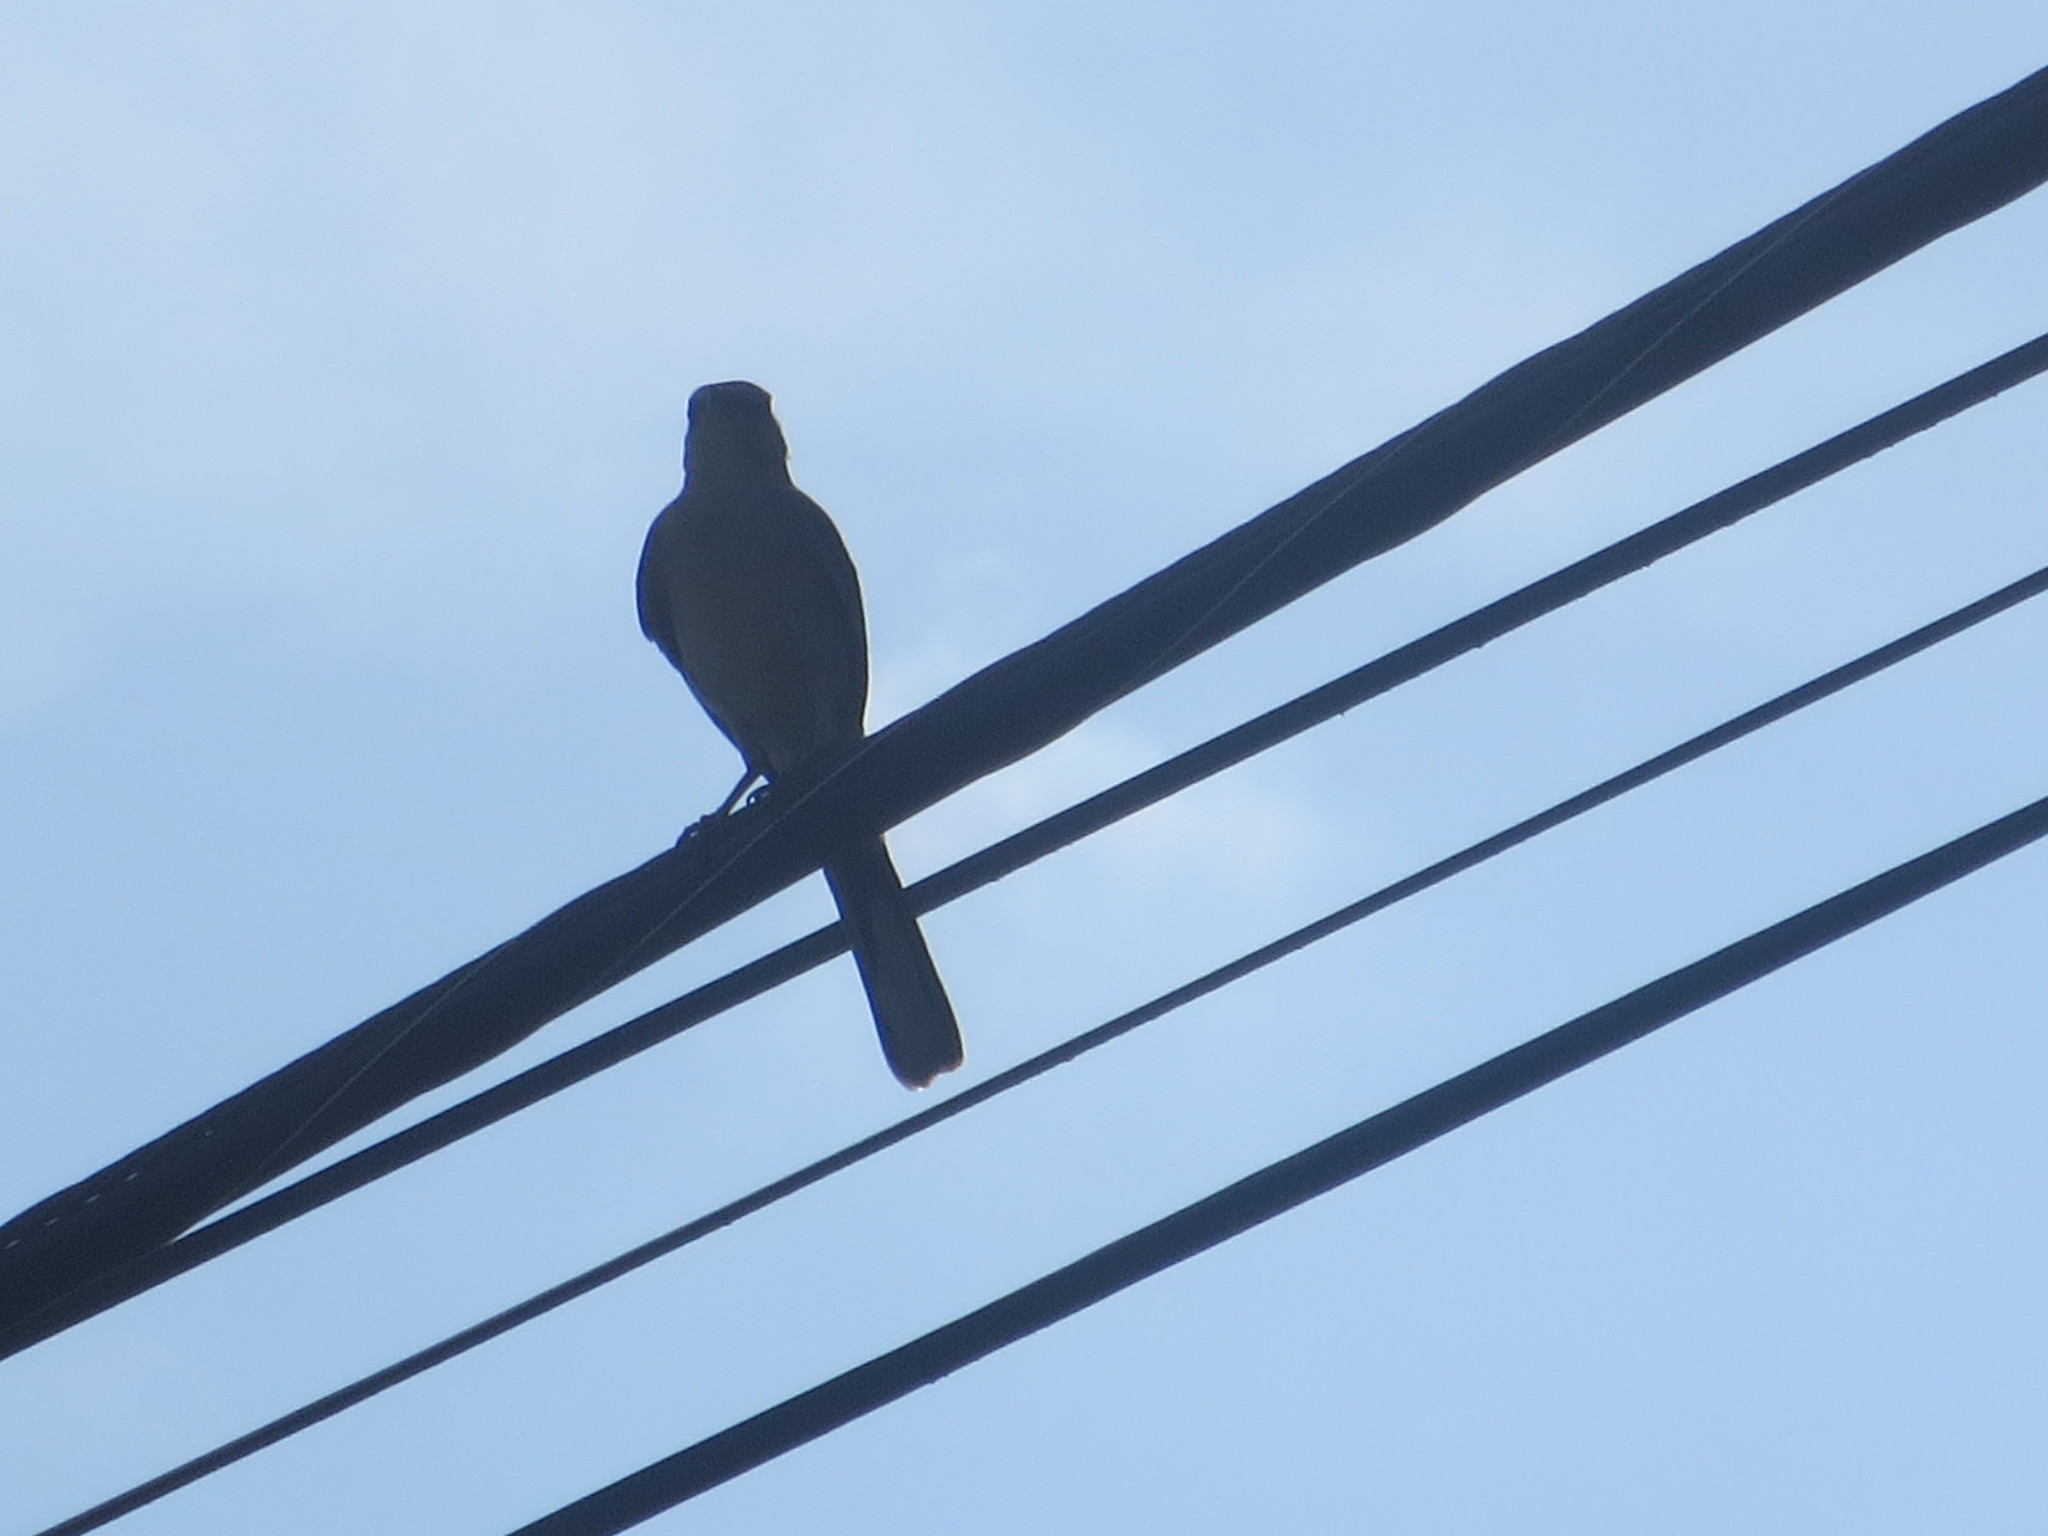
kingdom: Animalia
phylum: Chordata
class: Aves
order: Passeriformes
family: Mimidae
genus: Mimus
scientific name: Mimus polyglottos
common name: Northern mockingbird
